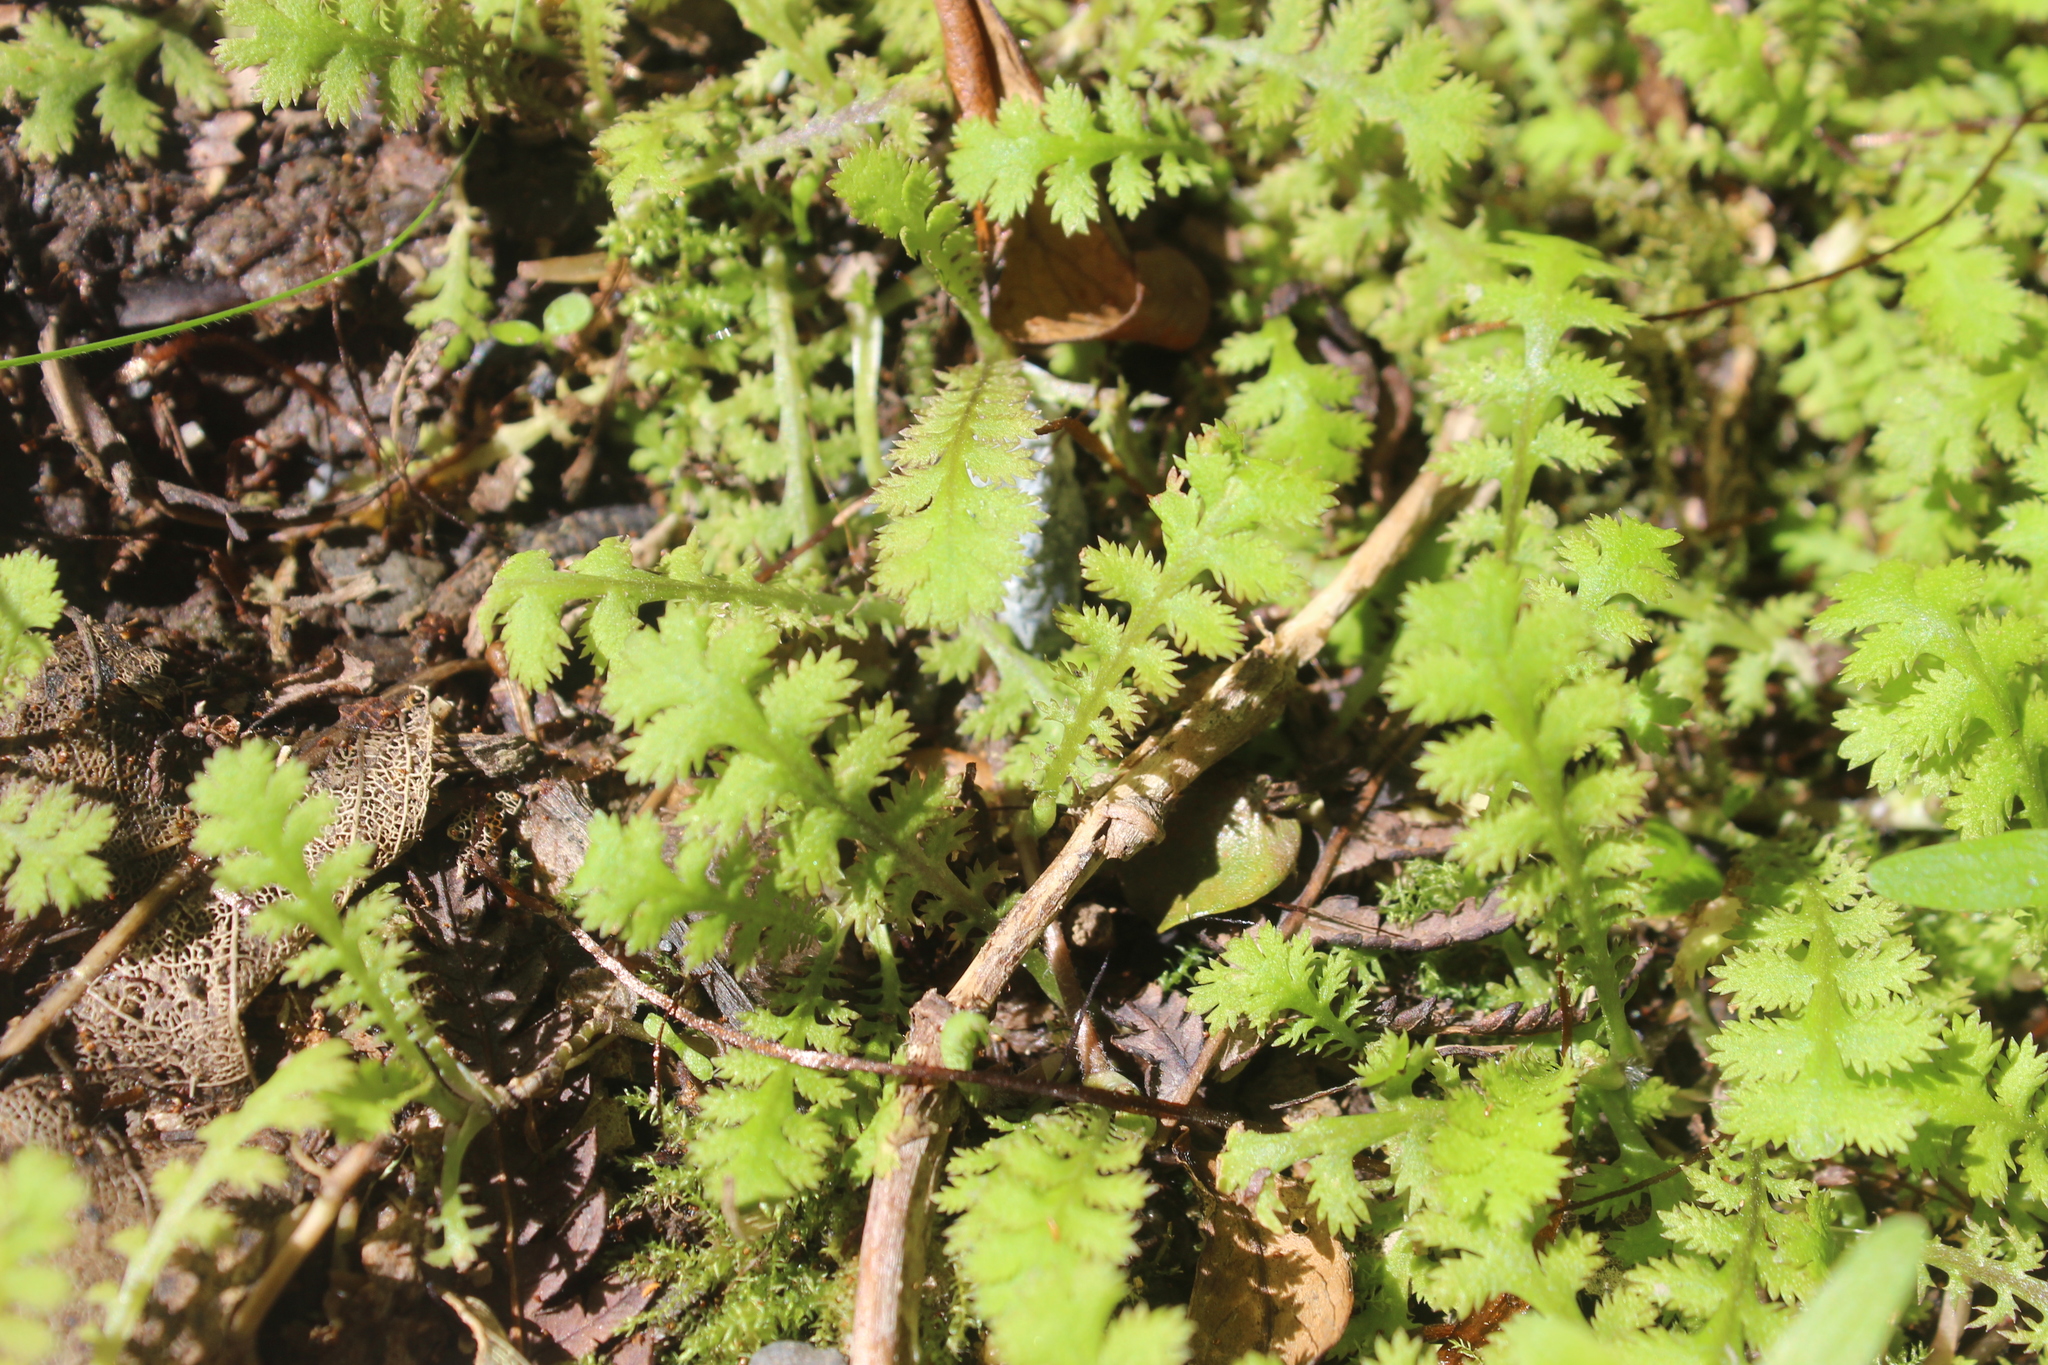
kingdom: Plantae
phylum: Tracheophyta
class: Magnoliopsida
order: Asterales
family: Asteraceae
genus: Leptinella
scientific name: Leptinella tenella
